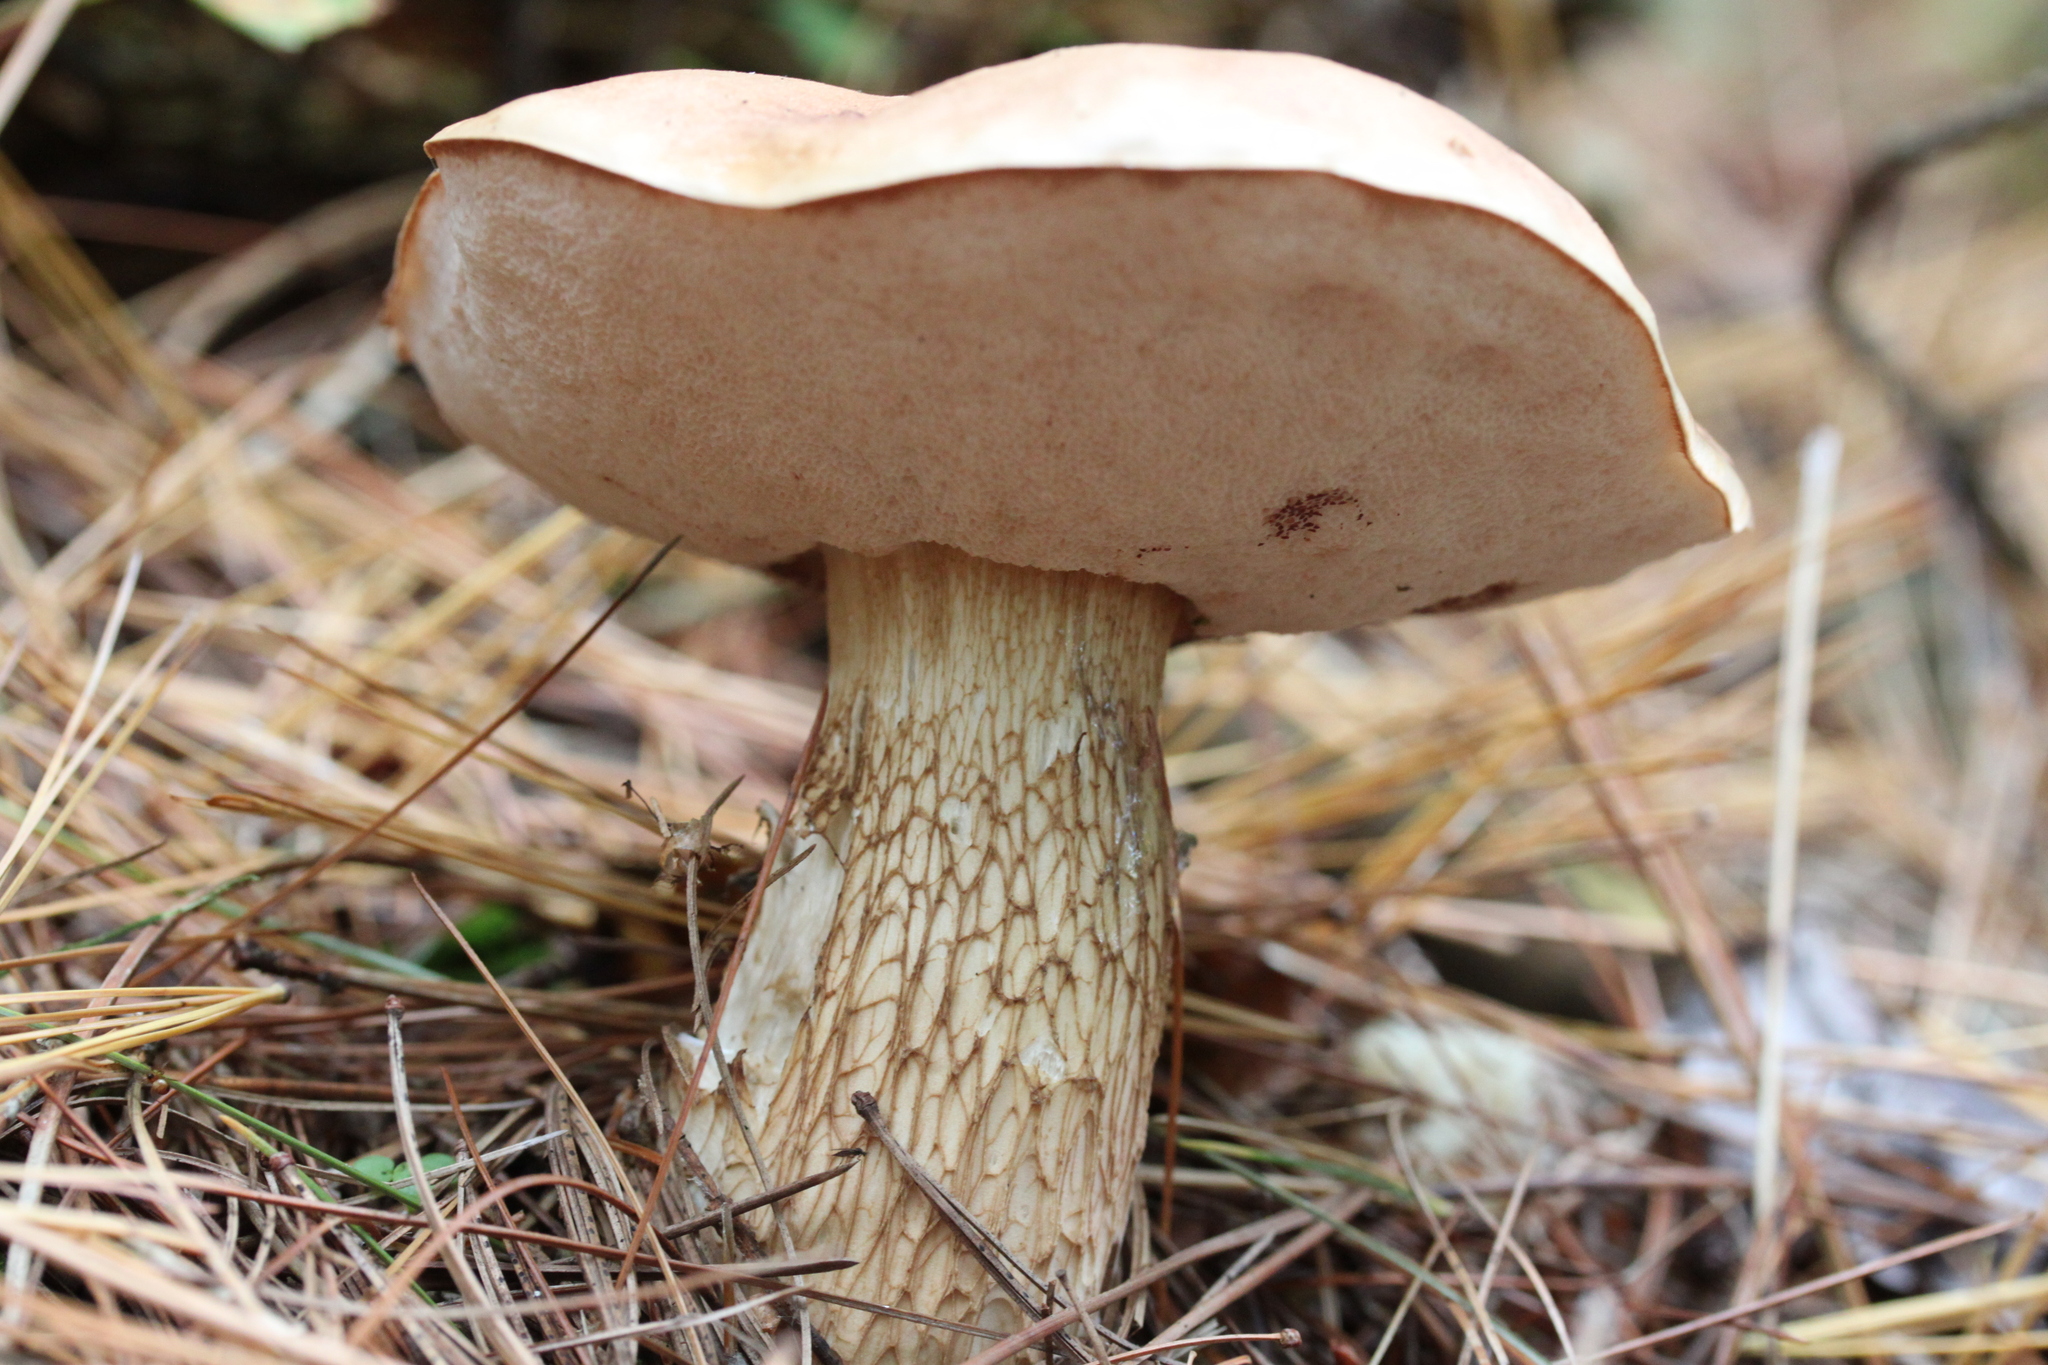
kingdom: Fungi
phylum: Basidiomycota
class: Agaricomycetes
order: Boletales
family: Boletaceae
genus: Tylopilus
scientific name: Tylopilus felleus
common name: Bitter bolete
